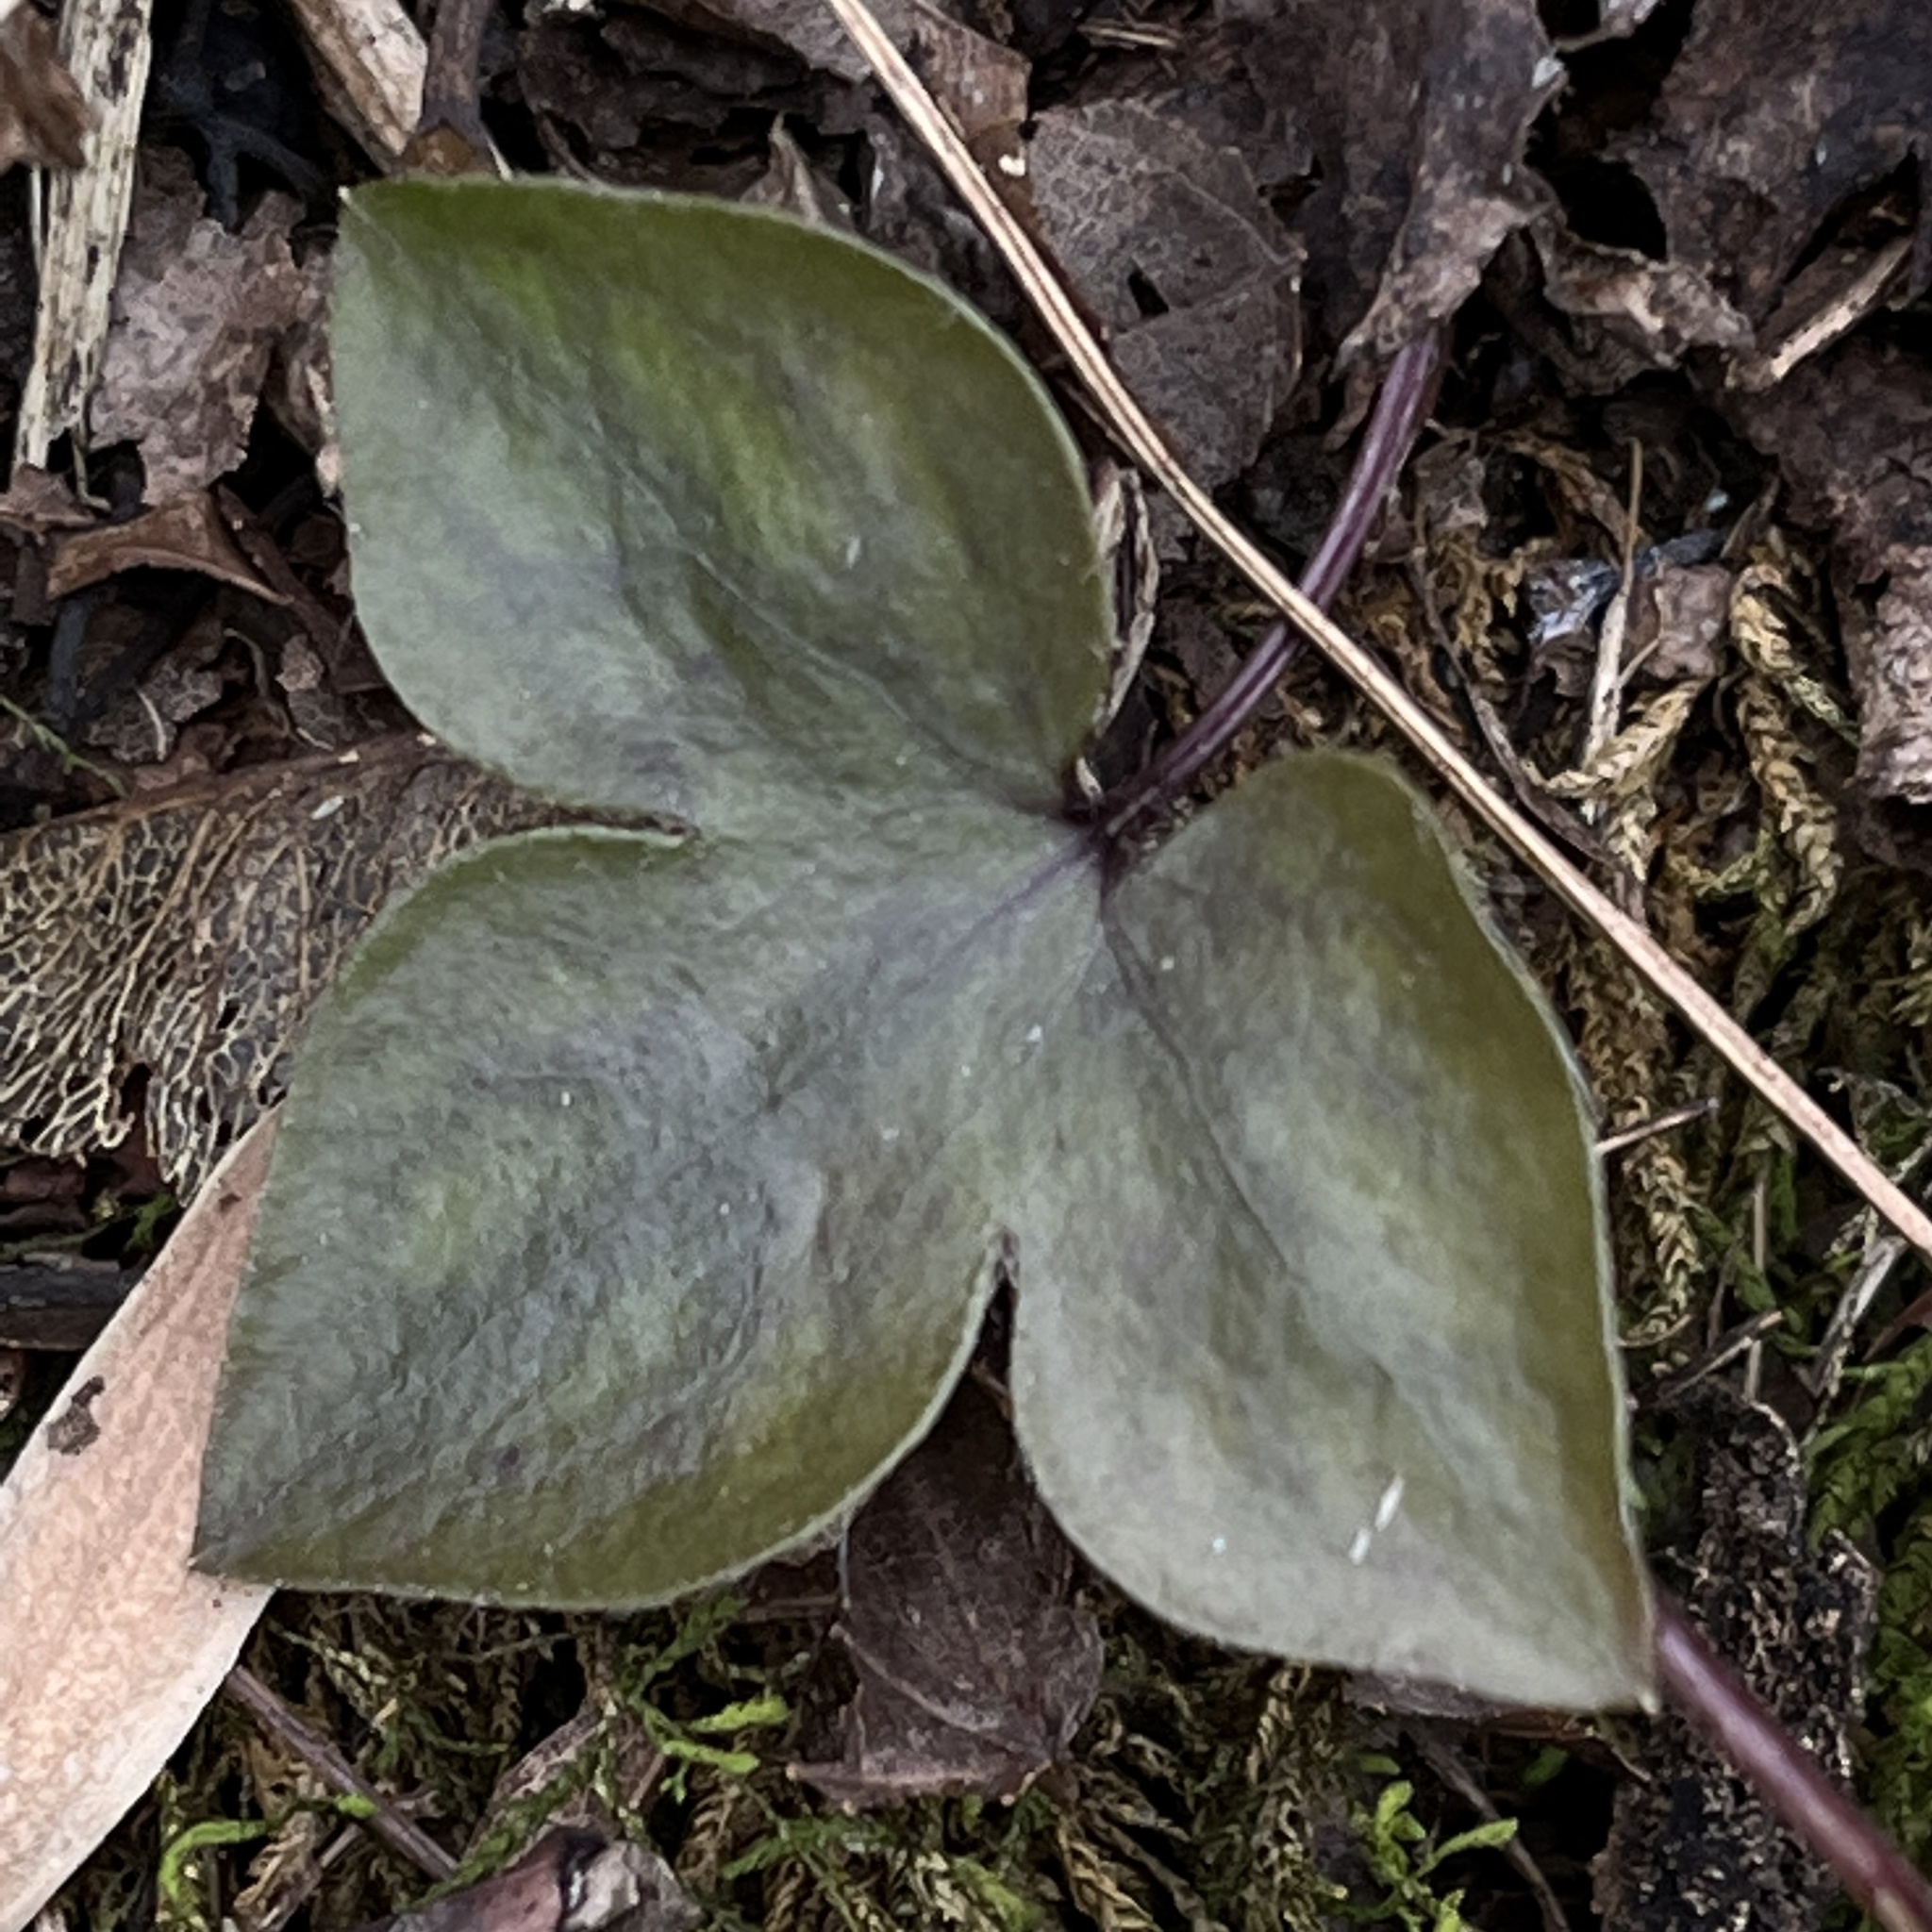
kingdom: Plantae
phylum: Tracheophyta
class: Magnoliopsida
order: Ranunculales
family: Ranunculaceae
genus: Hepatica
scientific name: Hepatica acutiloba
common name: Sharp-lobed hepatica
